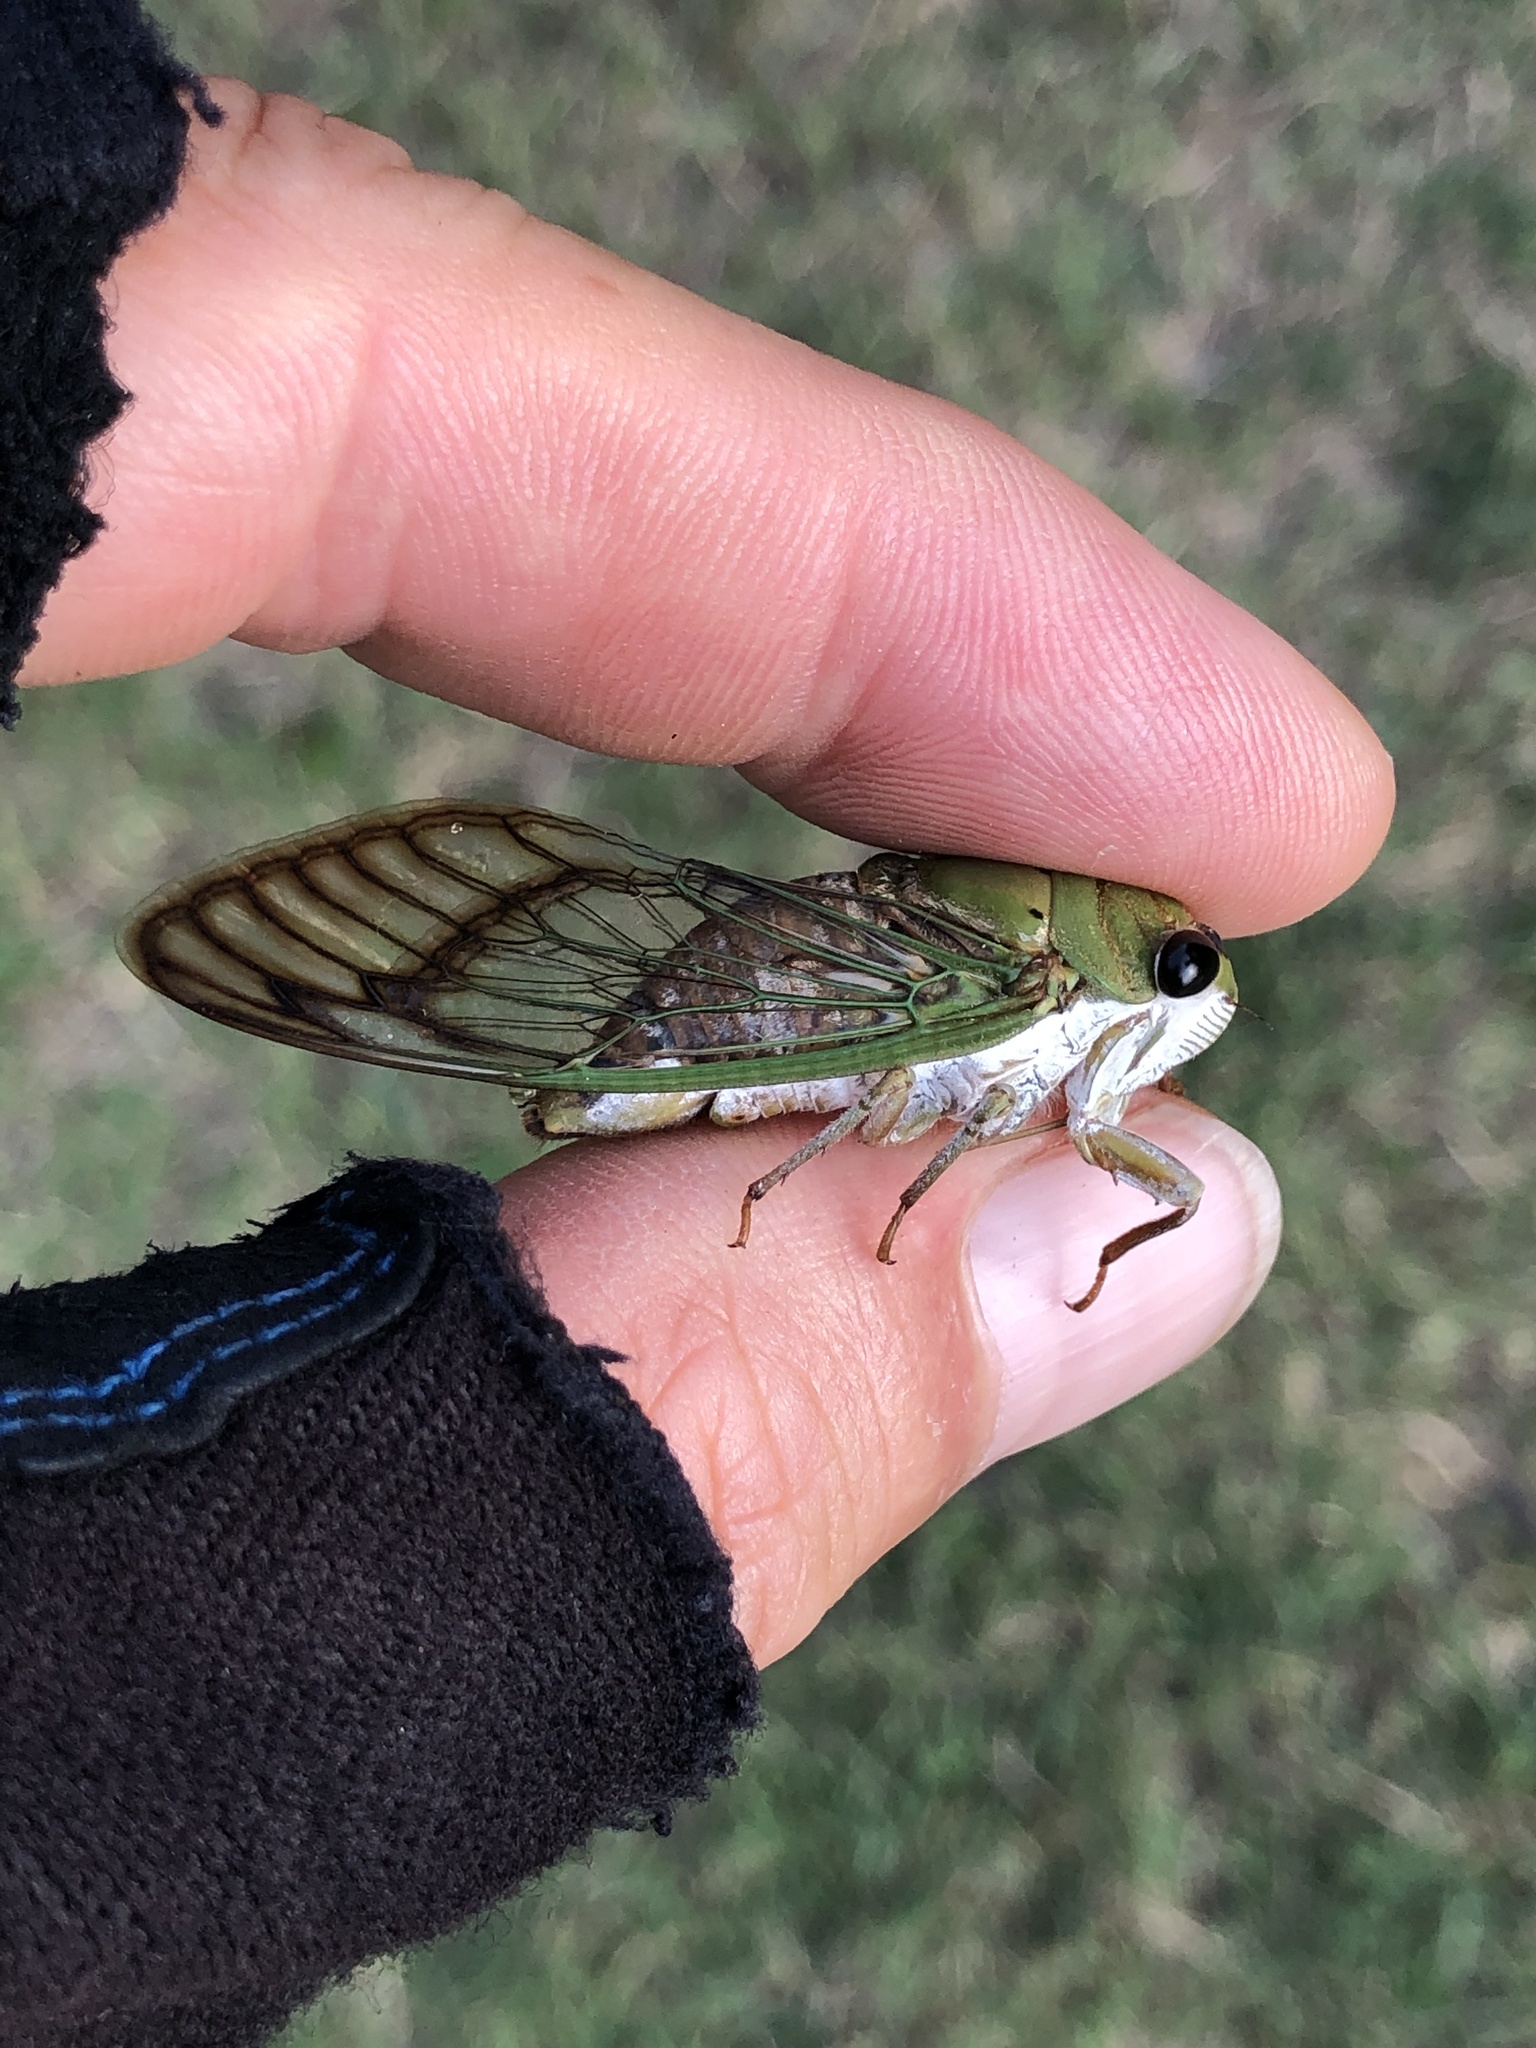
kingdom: Animalia
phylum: Arthropoda
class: Insecta
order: Hemiptera
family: Cicadidae
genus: Neotibicen
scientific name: Neotibicen superbus
